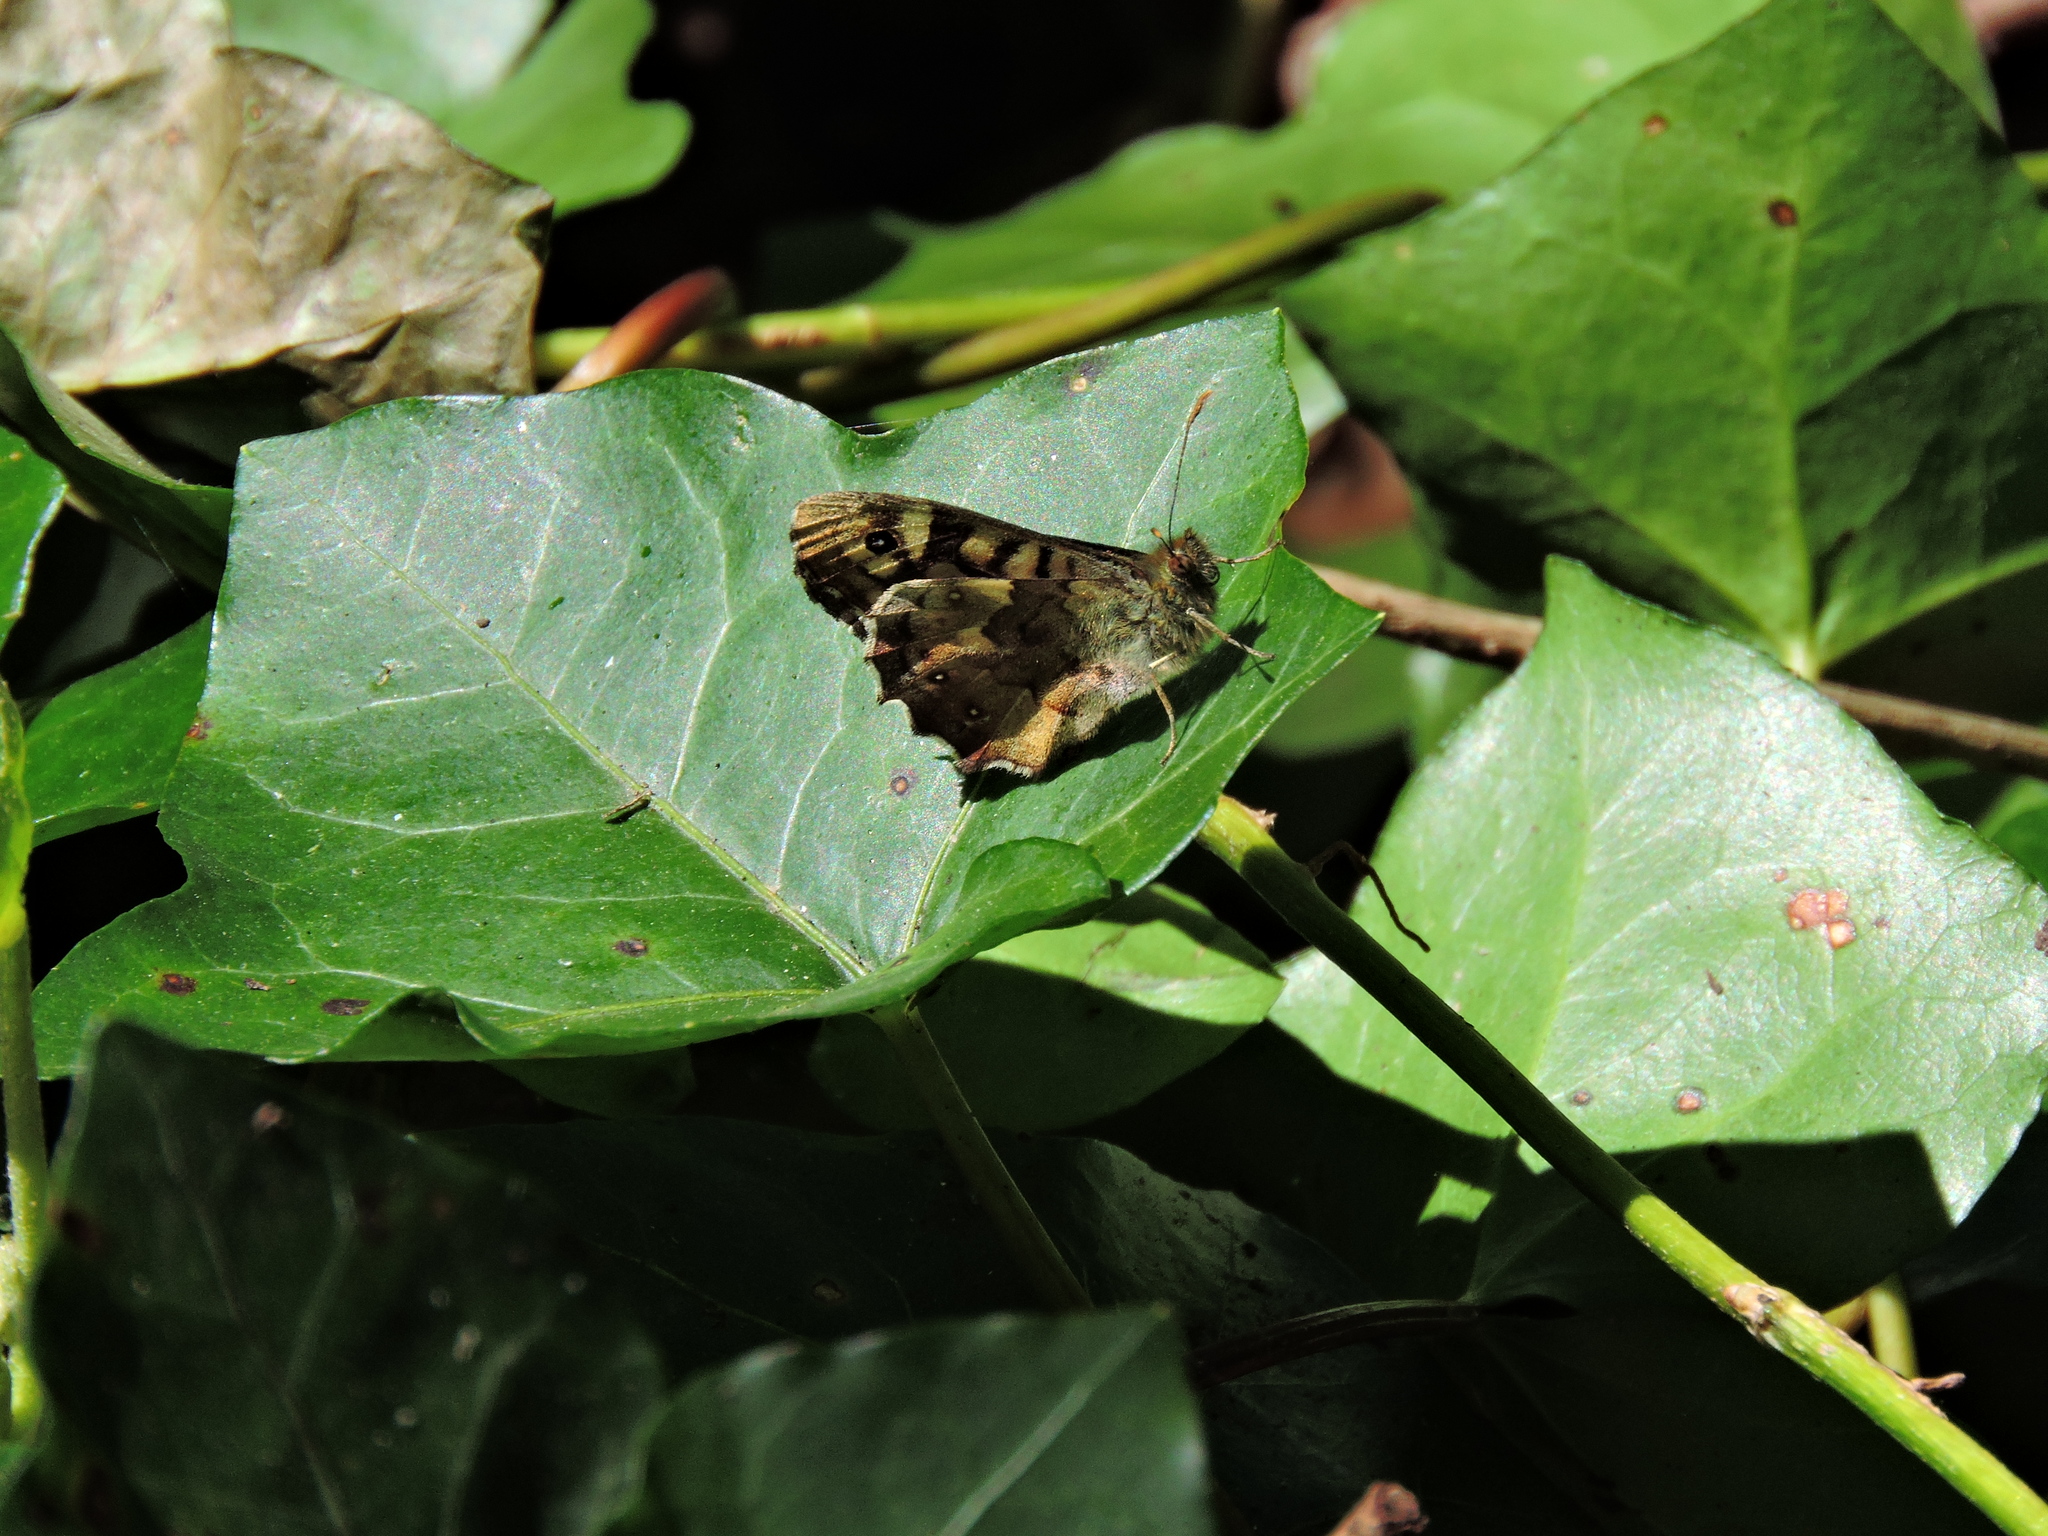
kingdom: Animalia
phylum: Arthropoda
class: Insecta
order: Lepidoptera
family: Nymphalidae
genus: Pararge
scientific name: Pararge aegeria
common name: Speckled wood
